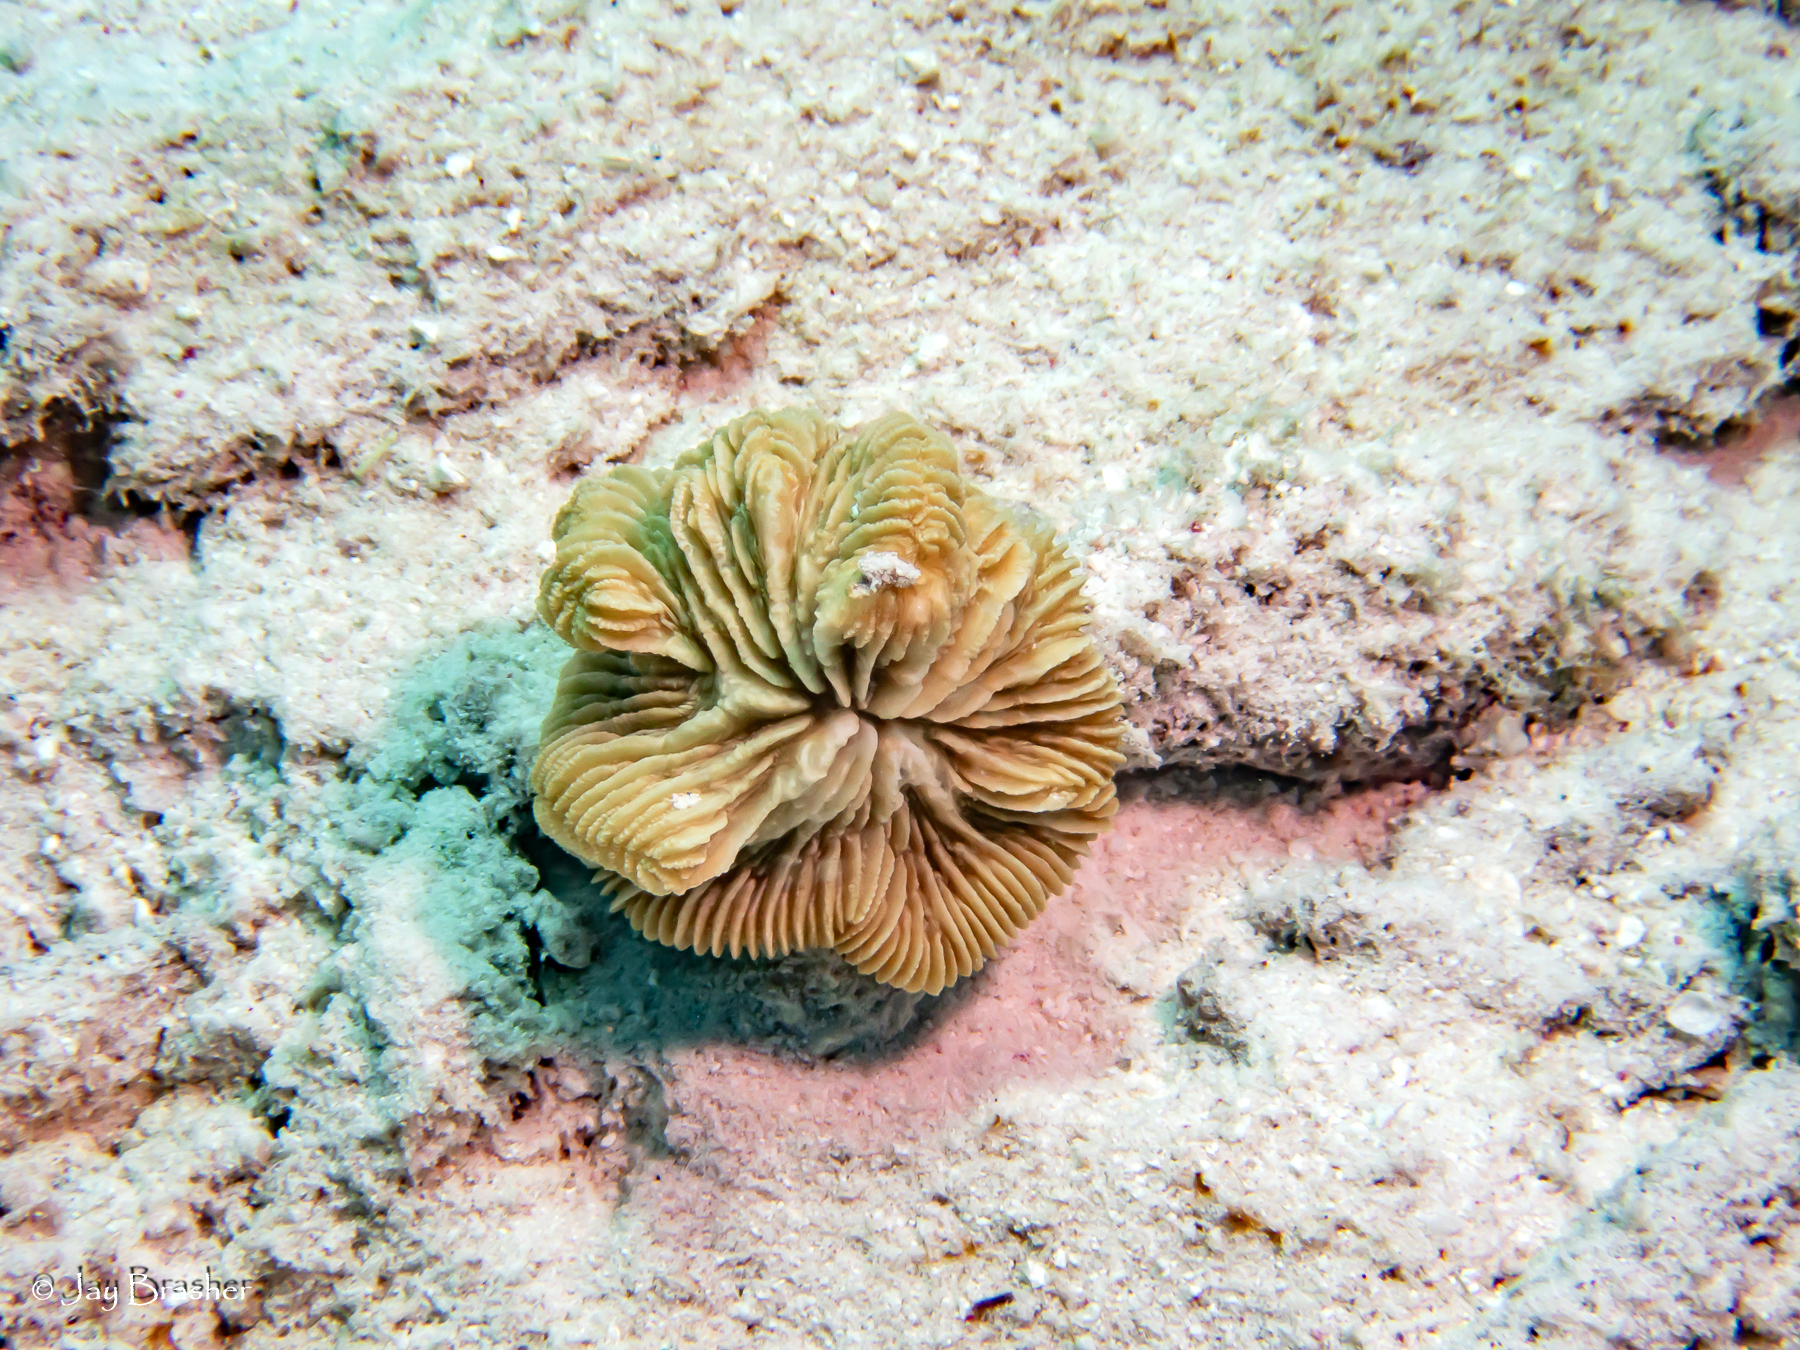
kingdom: Animalia
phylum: Cnidaria
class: Anthozoa
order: Scleractinia
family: Meandrinidae
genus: Meandrina
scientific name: Meandrina meandrites
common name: Maze coral
